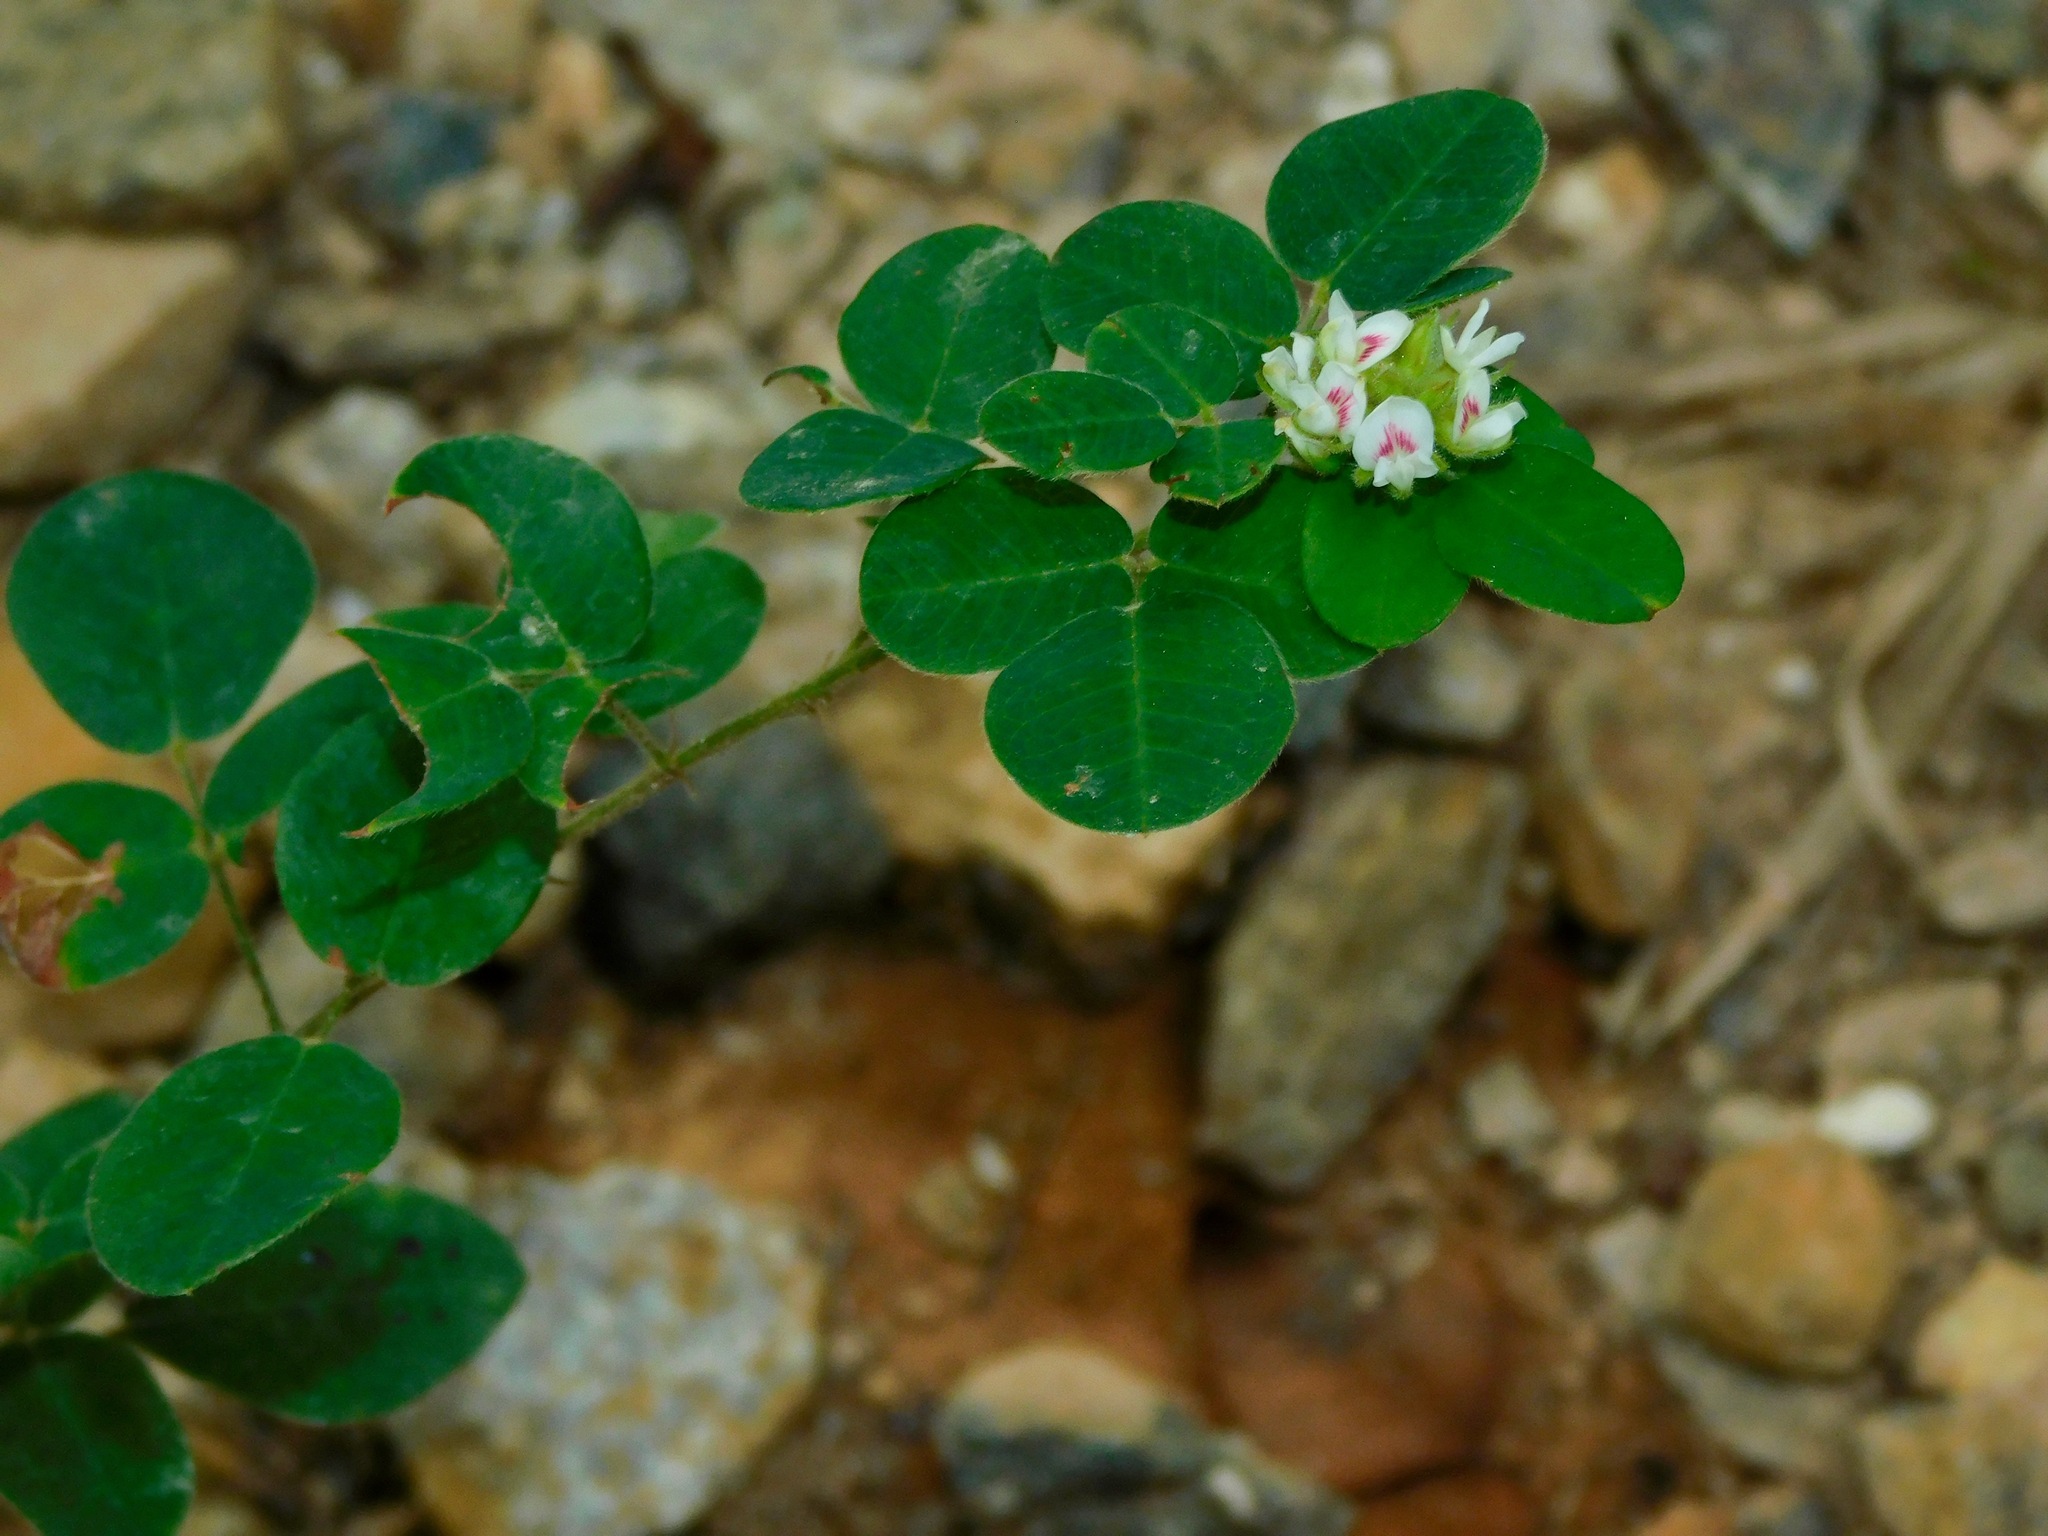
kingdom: Plantae
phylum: Tracheophyta
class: Magnoliopsida
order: Fabales
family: Fabaceae
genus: Lespedeza
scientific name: Lespedeza hirta
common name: Hairy lespedeza
